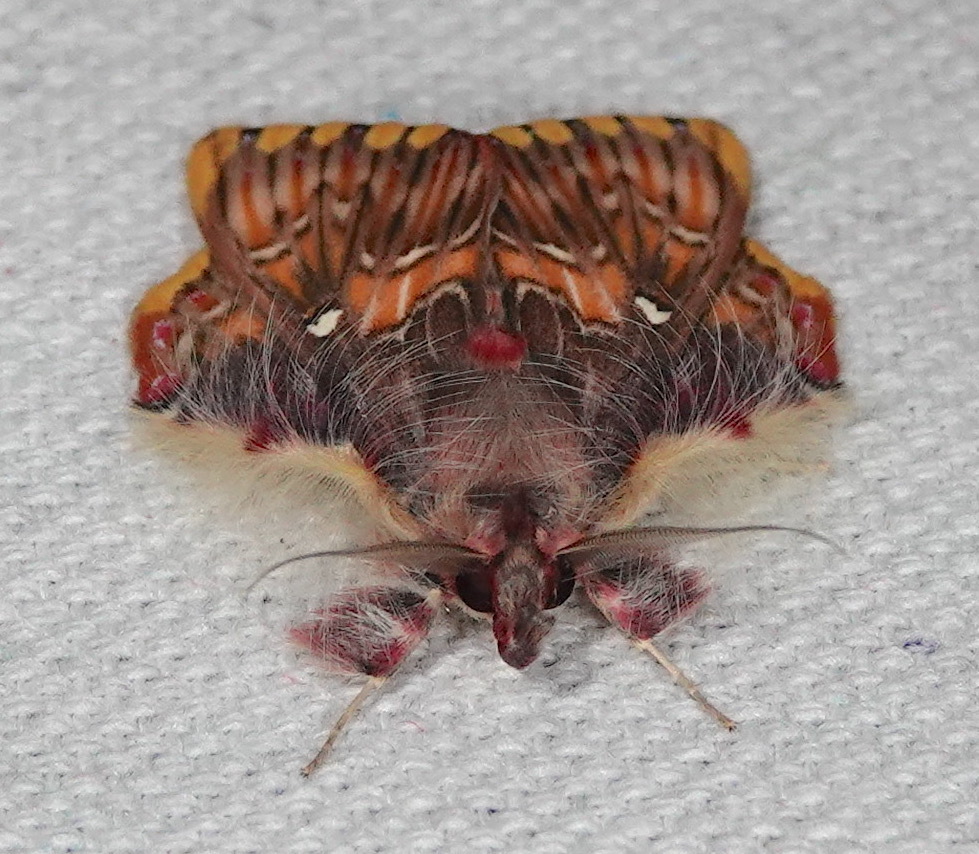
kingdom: Animalia
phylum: Arthropoda
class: Insecta
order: Lepidoptera
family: Erebidae
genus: Sosxetra
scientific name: Sosxetra grata
